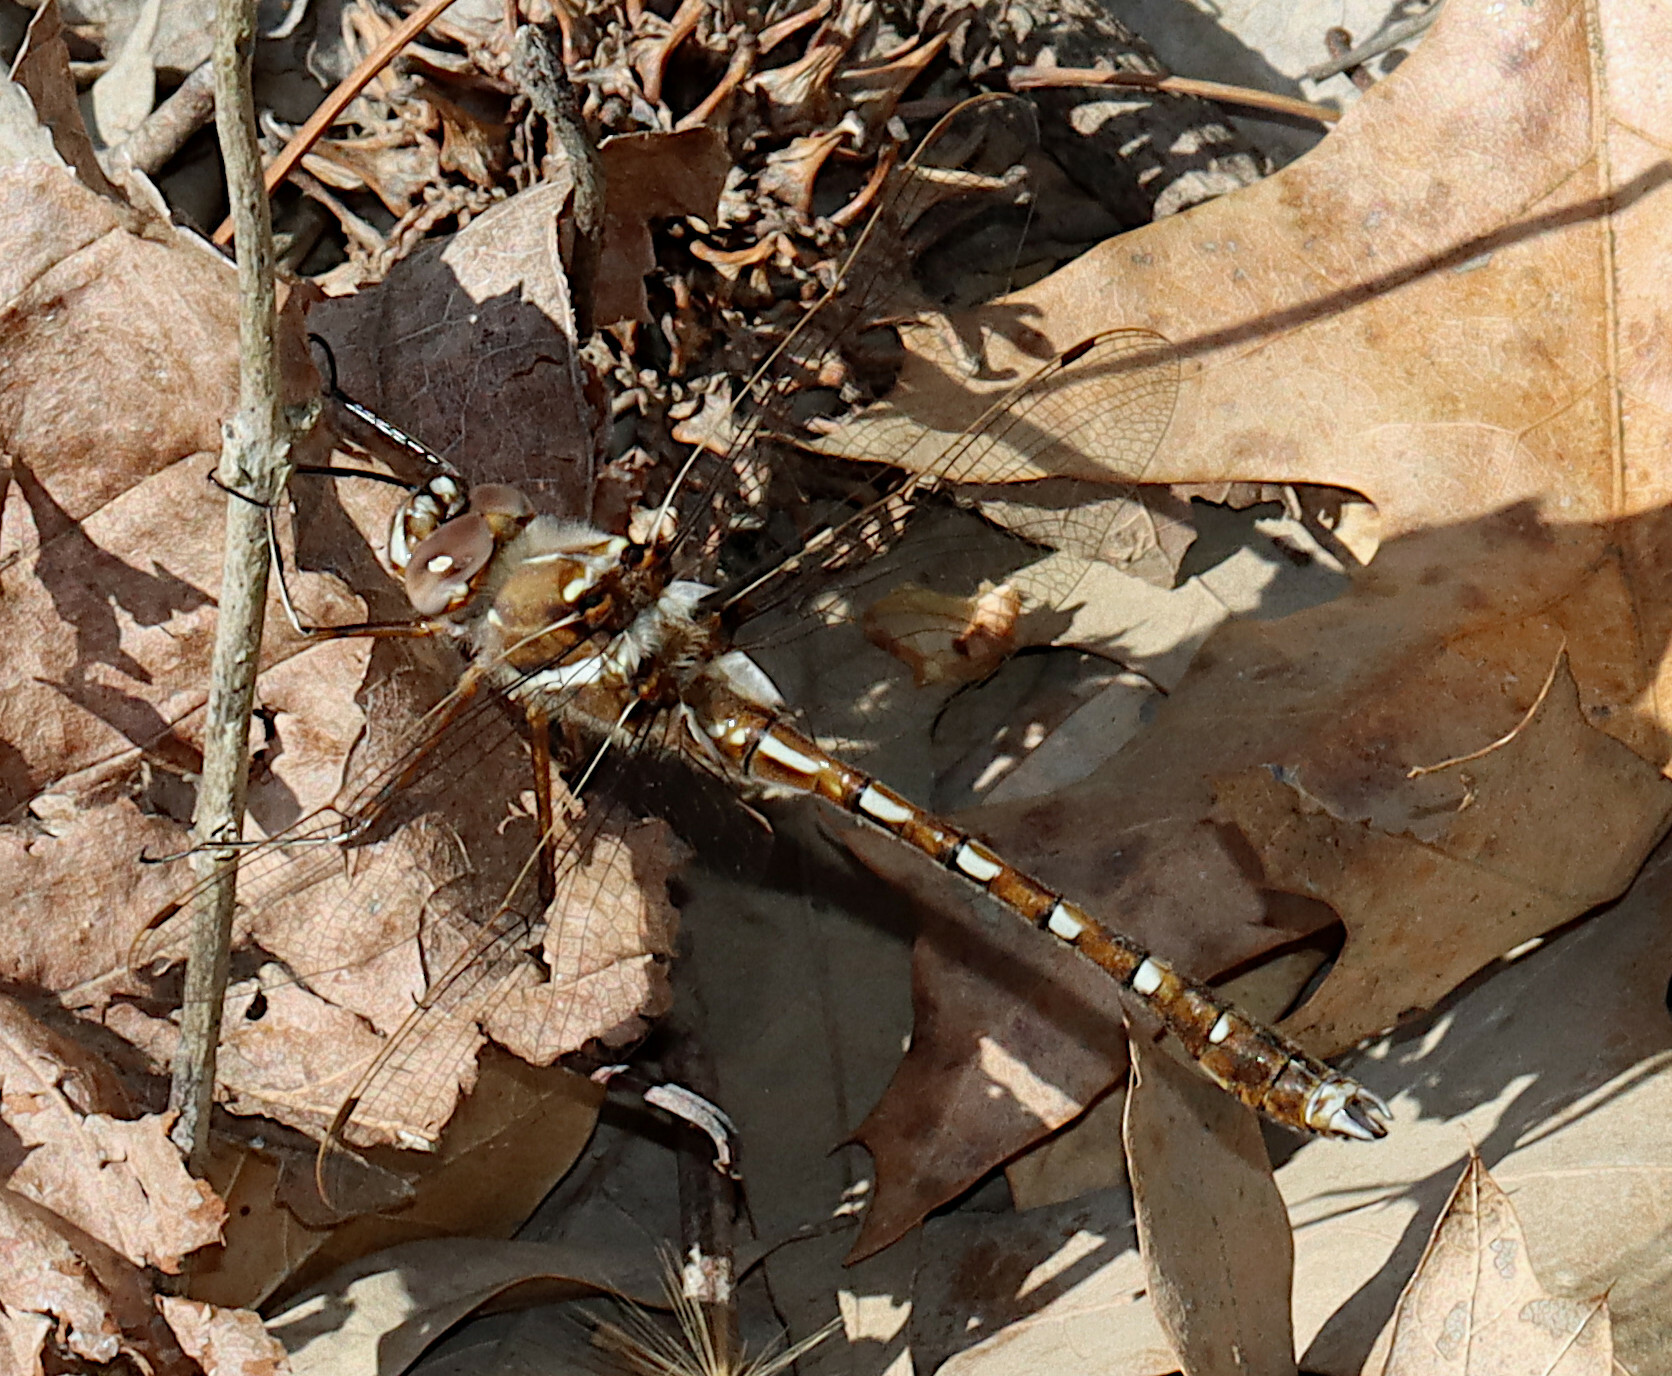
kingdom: Animalia
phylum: Arthropoda
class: Insecta
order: Odonata
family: Macromiidae
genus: Didymops
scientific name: Didymops transversa
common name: Stream cruiser
